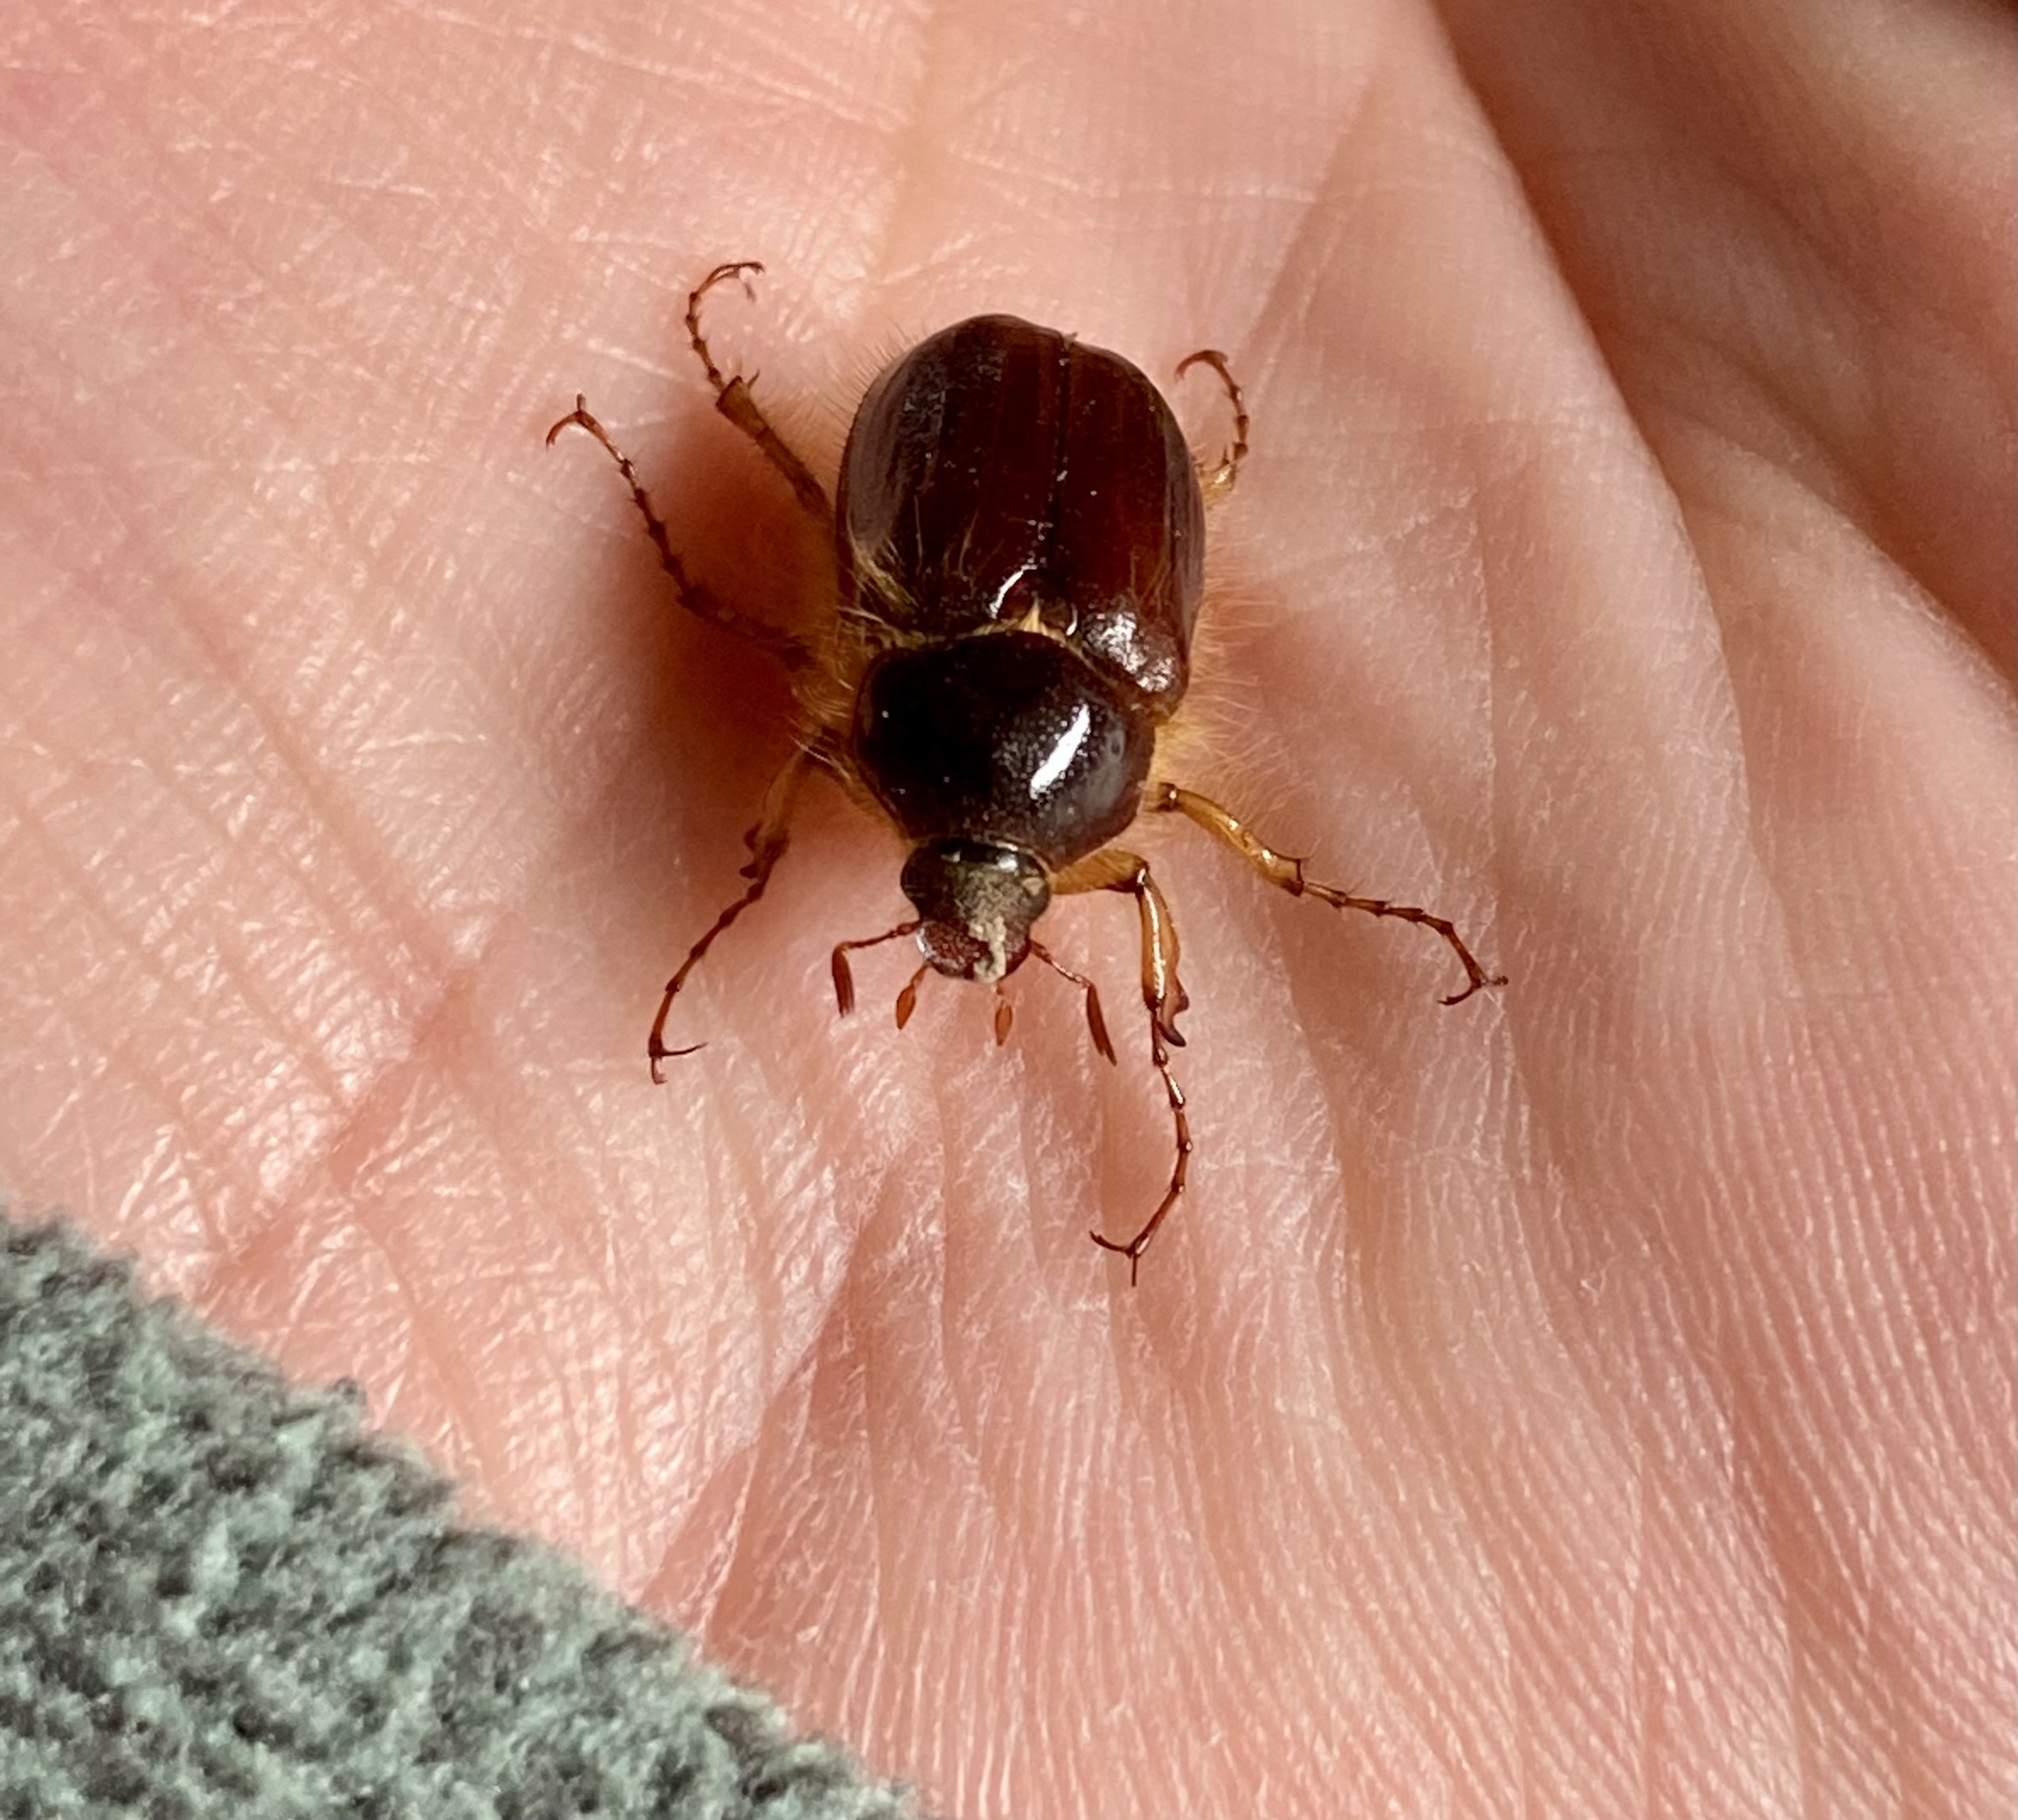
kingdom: Animalia
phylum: Arthropoda
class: Insecta
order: Coleoptera
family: Scarabaeidae
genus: Paulosawaya
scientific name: Paulosawaya ursina
